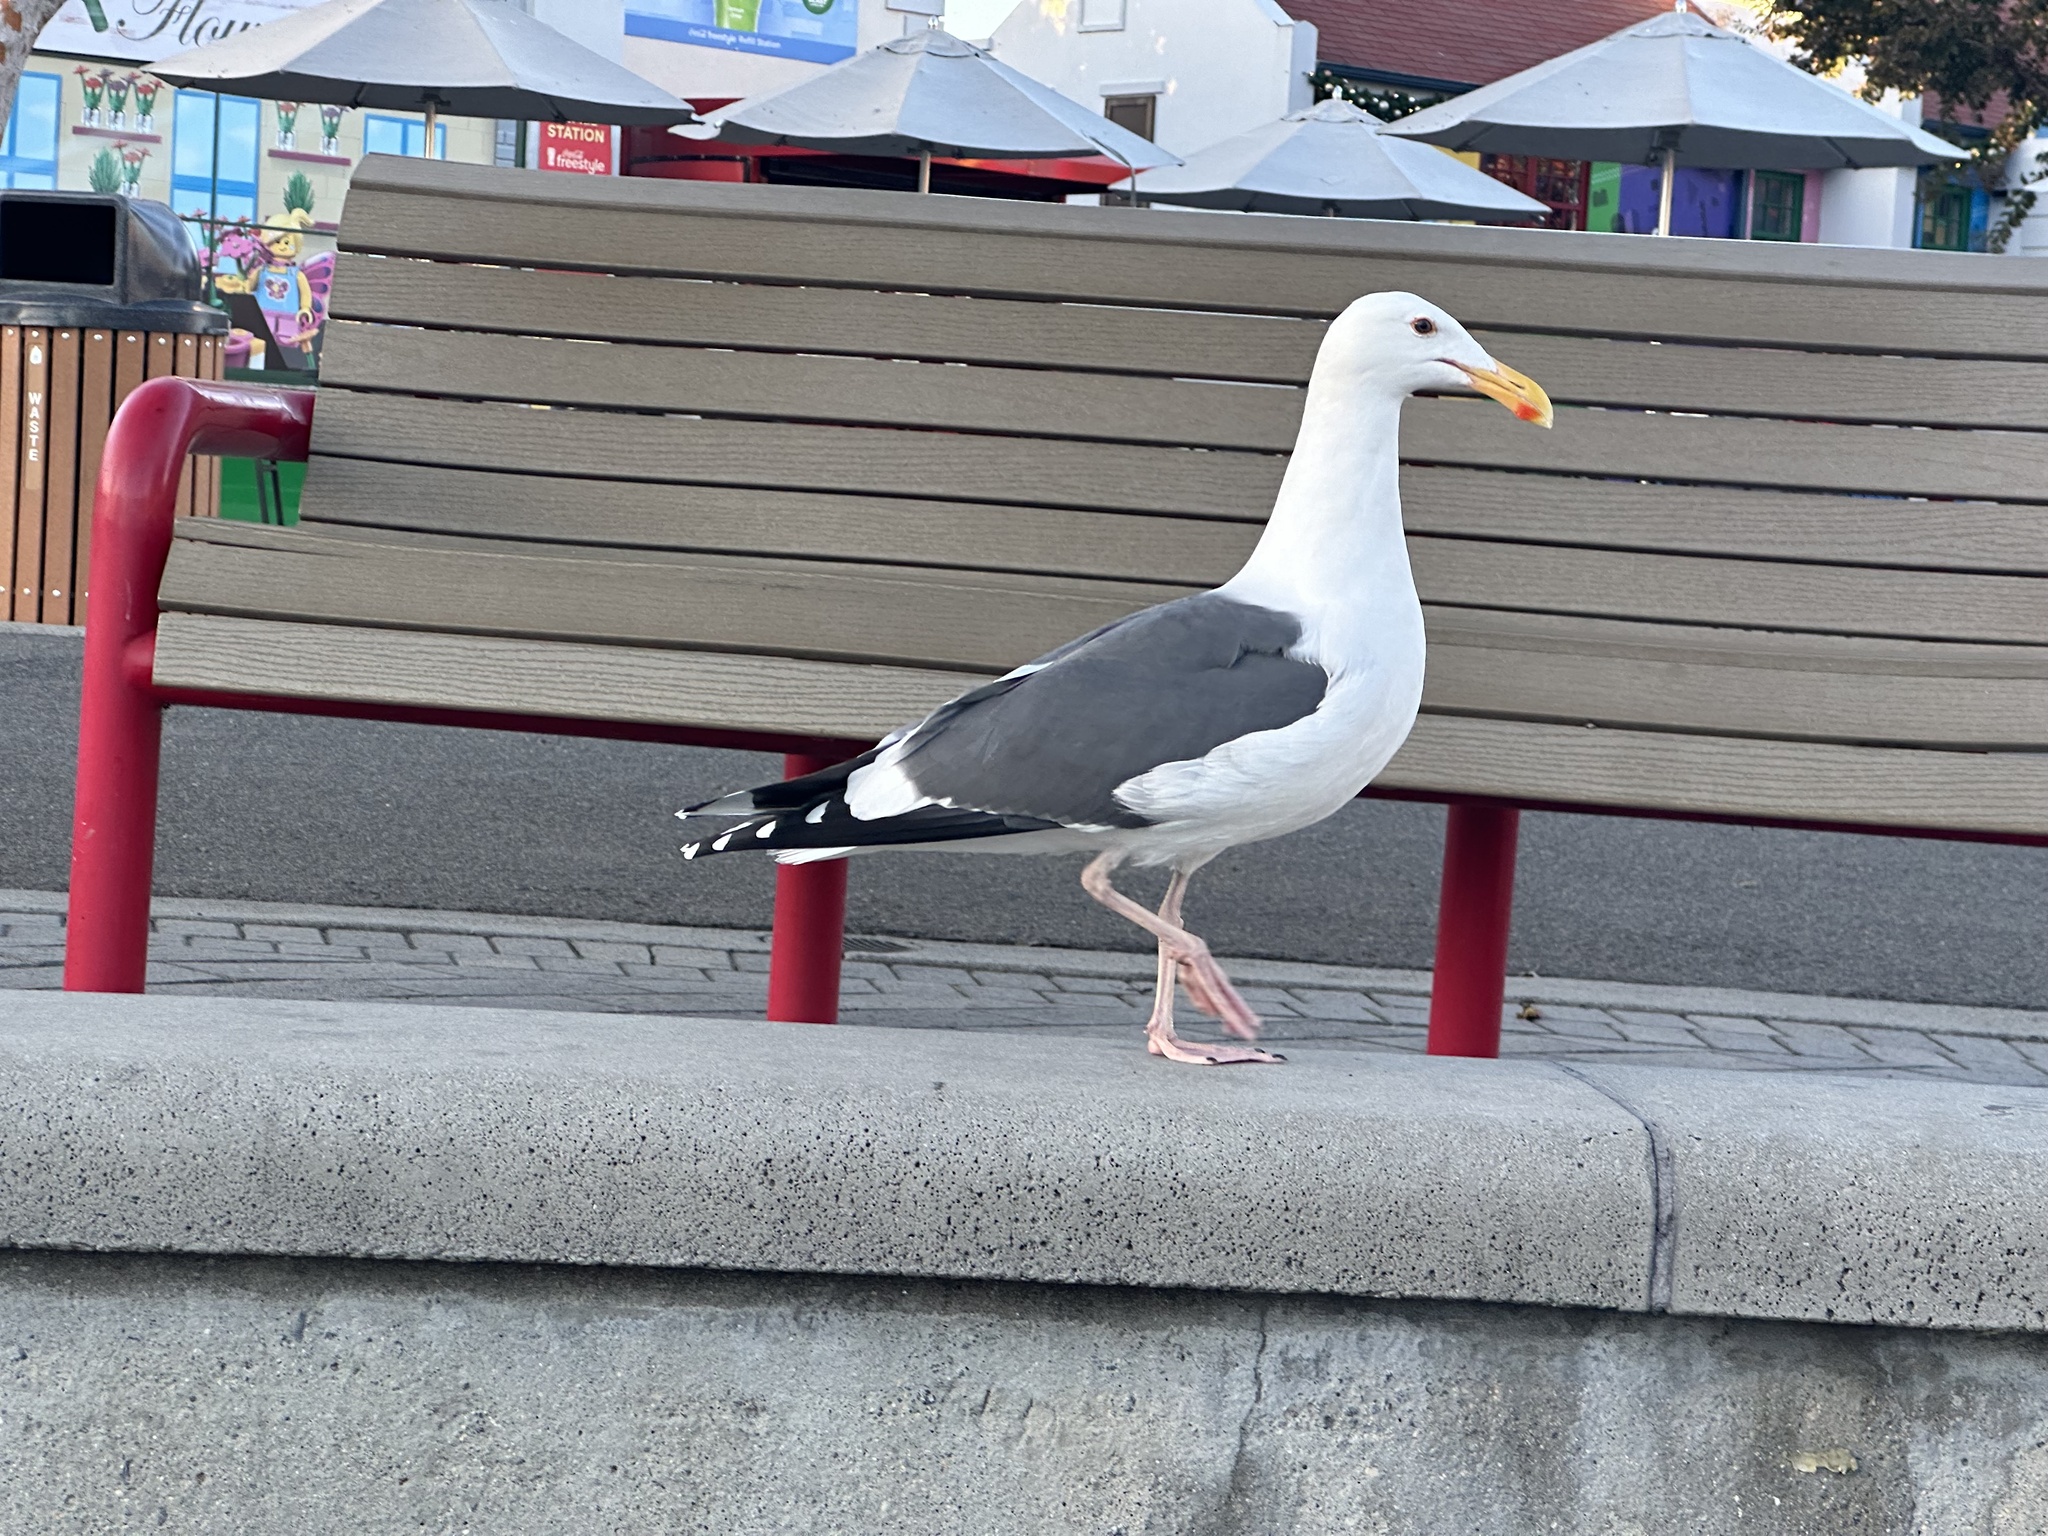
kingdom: Animalia
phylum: Chordata
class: Aves
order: Charadriiformes
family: Laridae
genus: Larus
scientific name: Larus occidentalis
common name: Western gull
